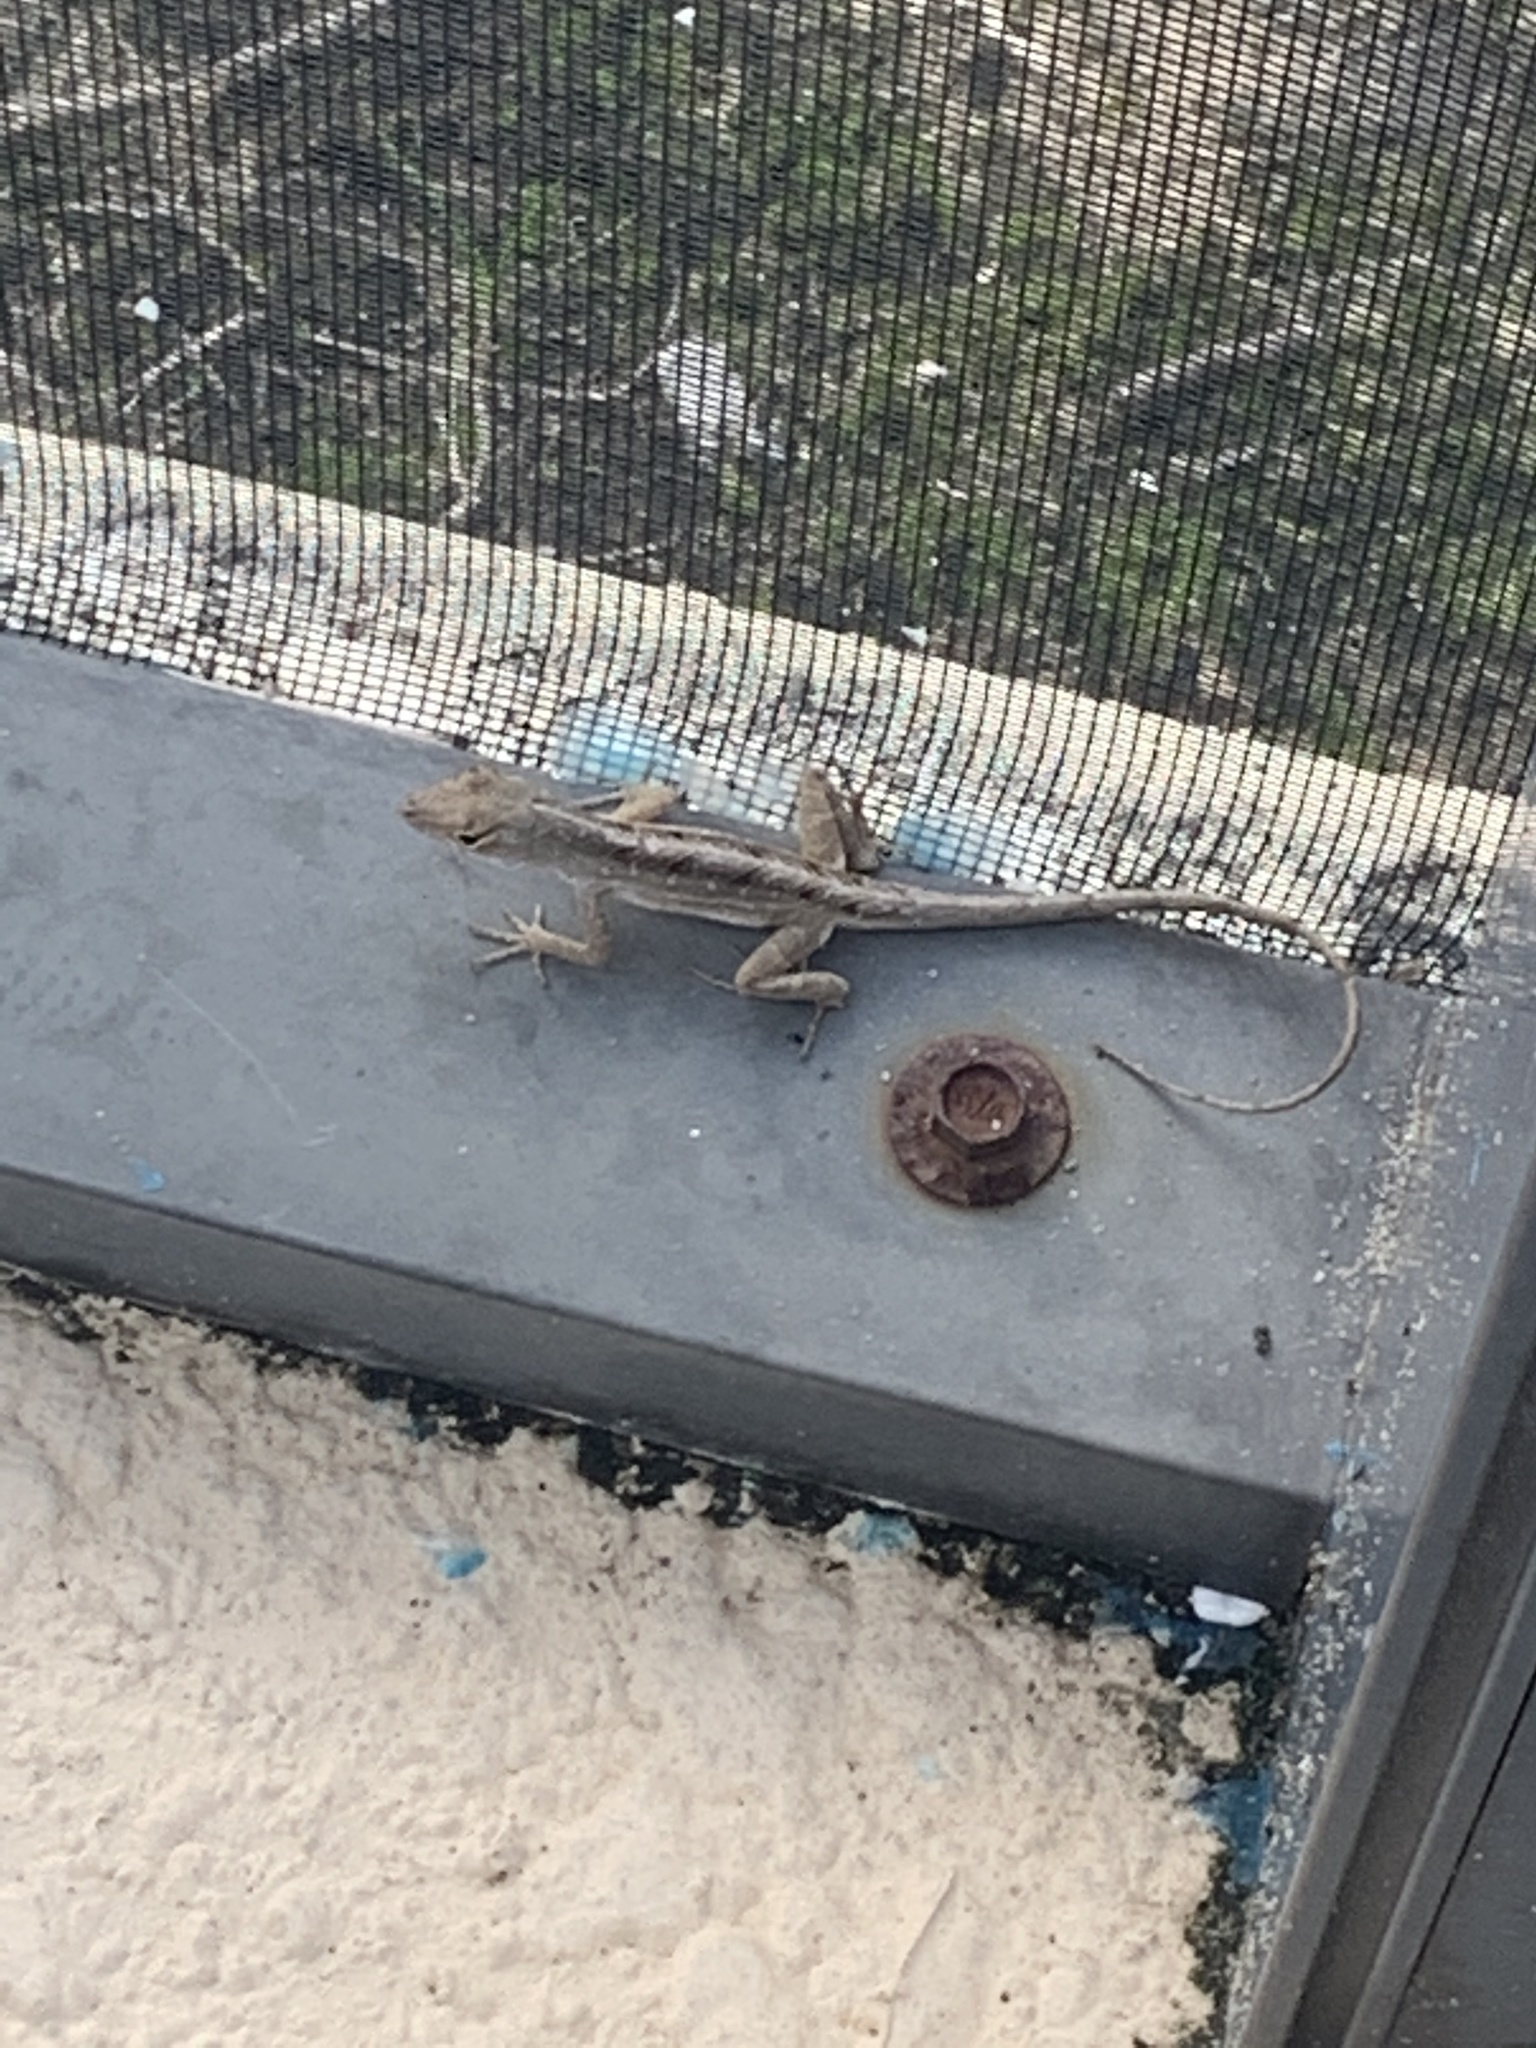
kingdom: Animalia
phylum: Chordata
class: Squamata
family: Dactyloidae
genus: Anolis
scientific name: Anolis sagrei
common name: Brown anole
